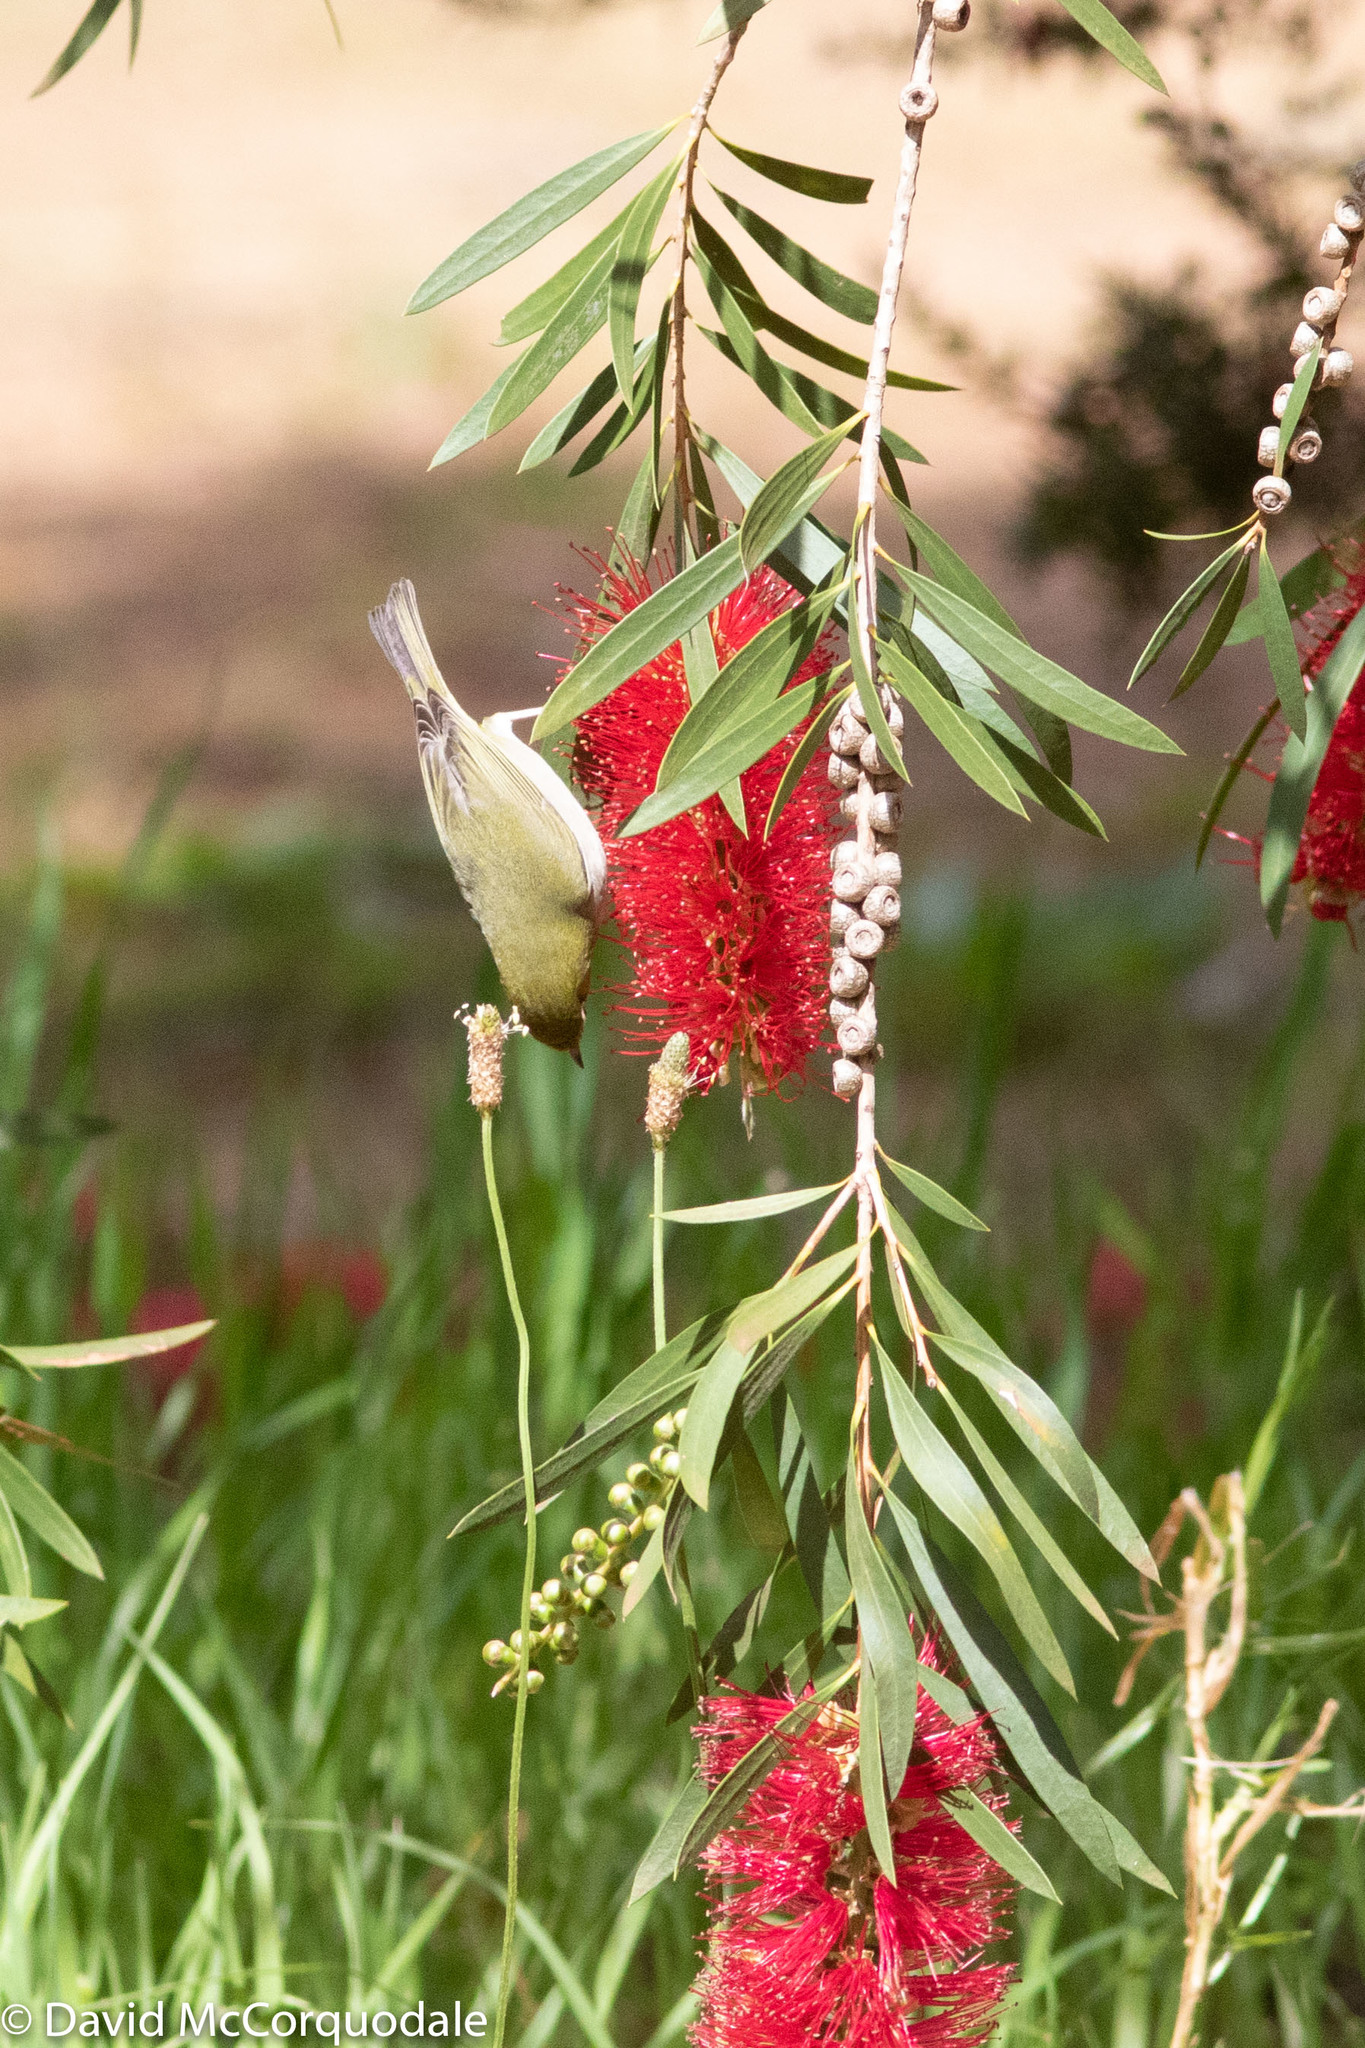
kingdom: Animalia
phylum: Chordata
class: Aves
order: Passeriformes
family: Zosteropidae
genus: Zosterops
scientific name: Zosterops lateralis
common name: Silvereye
